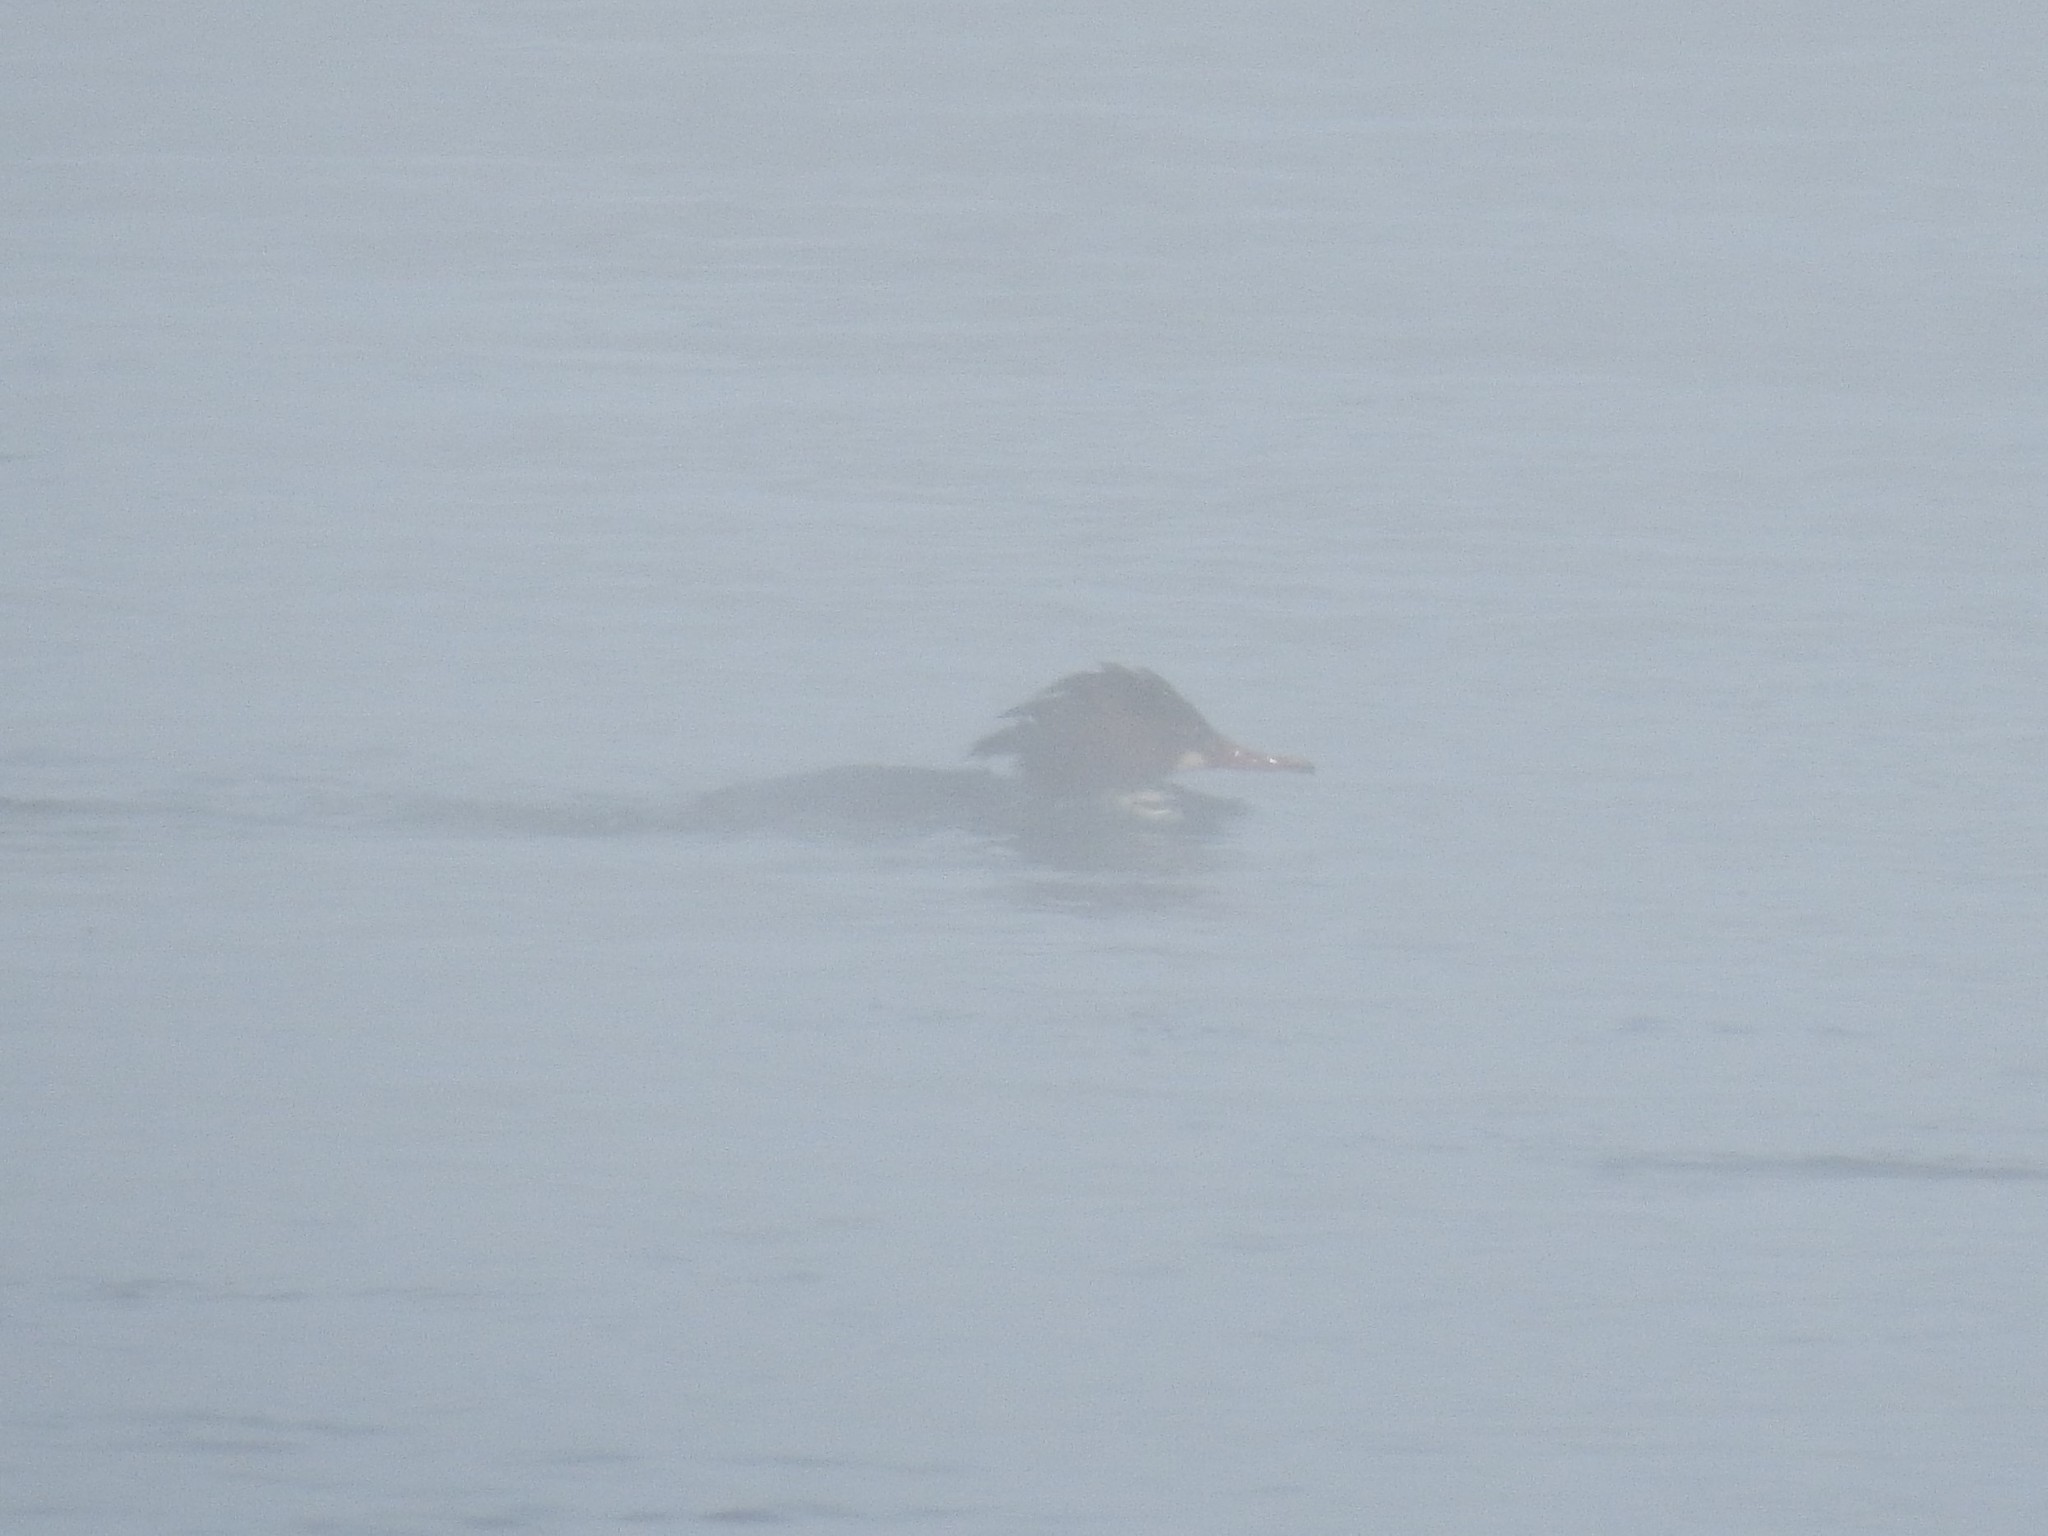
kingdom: Animalia
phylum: Chordata
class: Aves
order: Anseriformes
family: Anatidae
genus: Mergus
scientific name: Mergus merganser
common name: Common merganser
